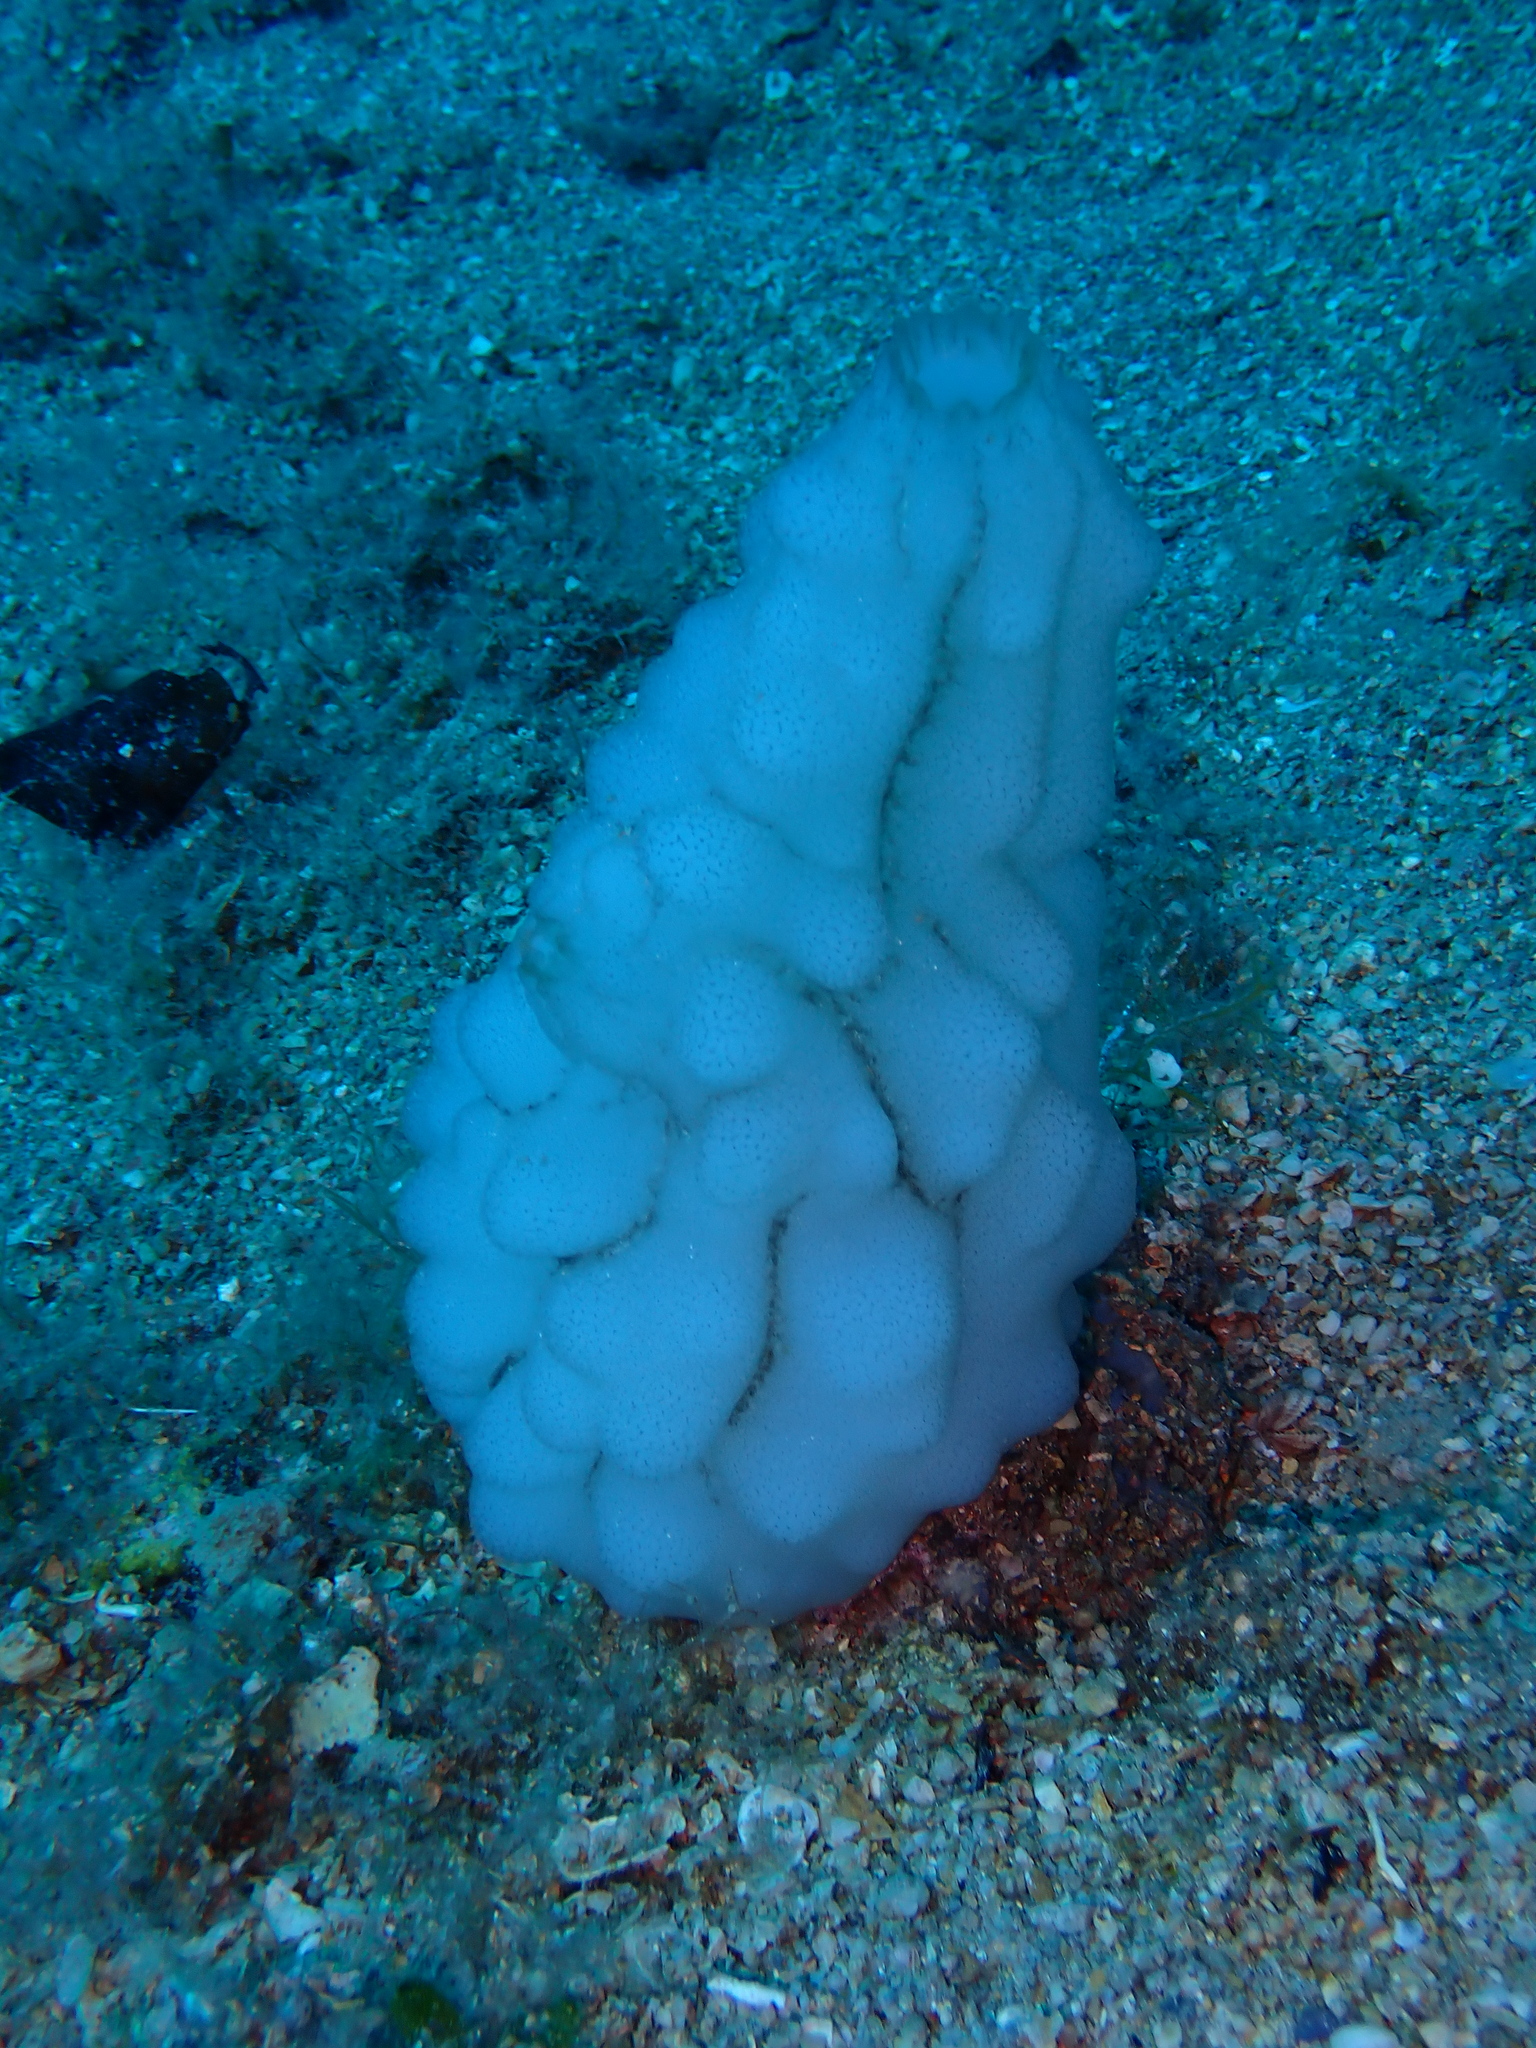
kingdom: Animalia
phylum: Chordata
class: Ascidiacea
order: Phlebobranchia
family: Ascidiidae
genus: Phallusia
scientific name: Phallusia mammillata
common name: Neptune's heart sea squirt
